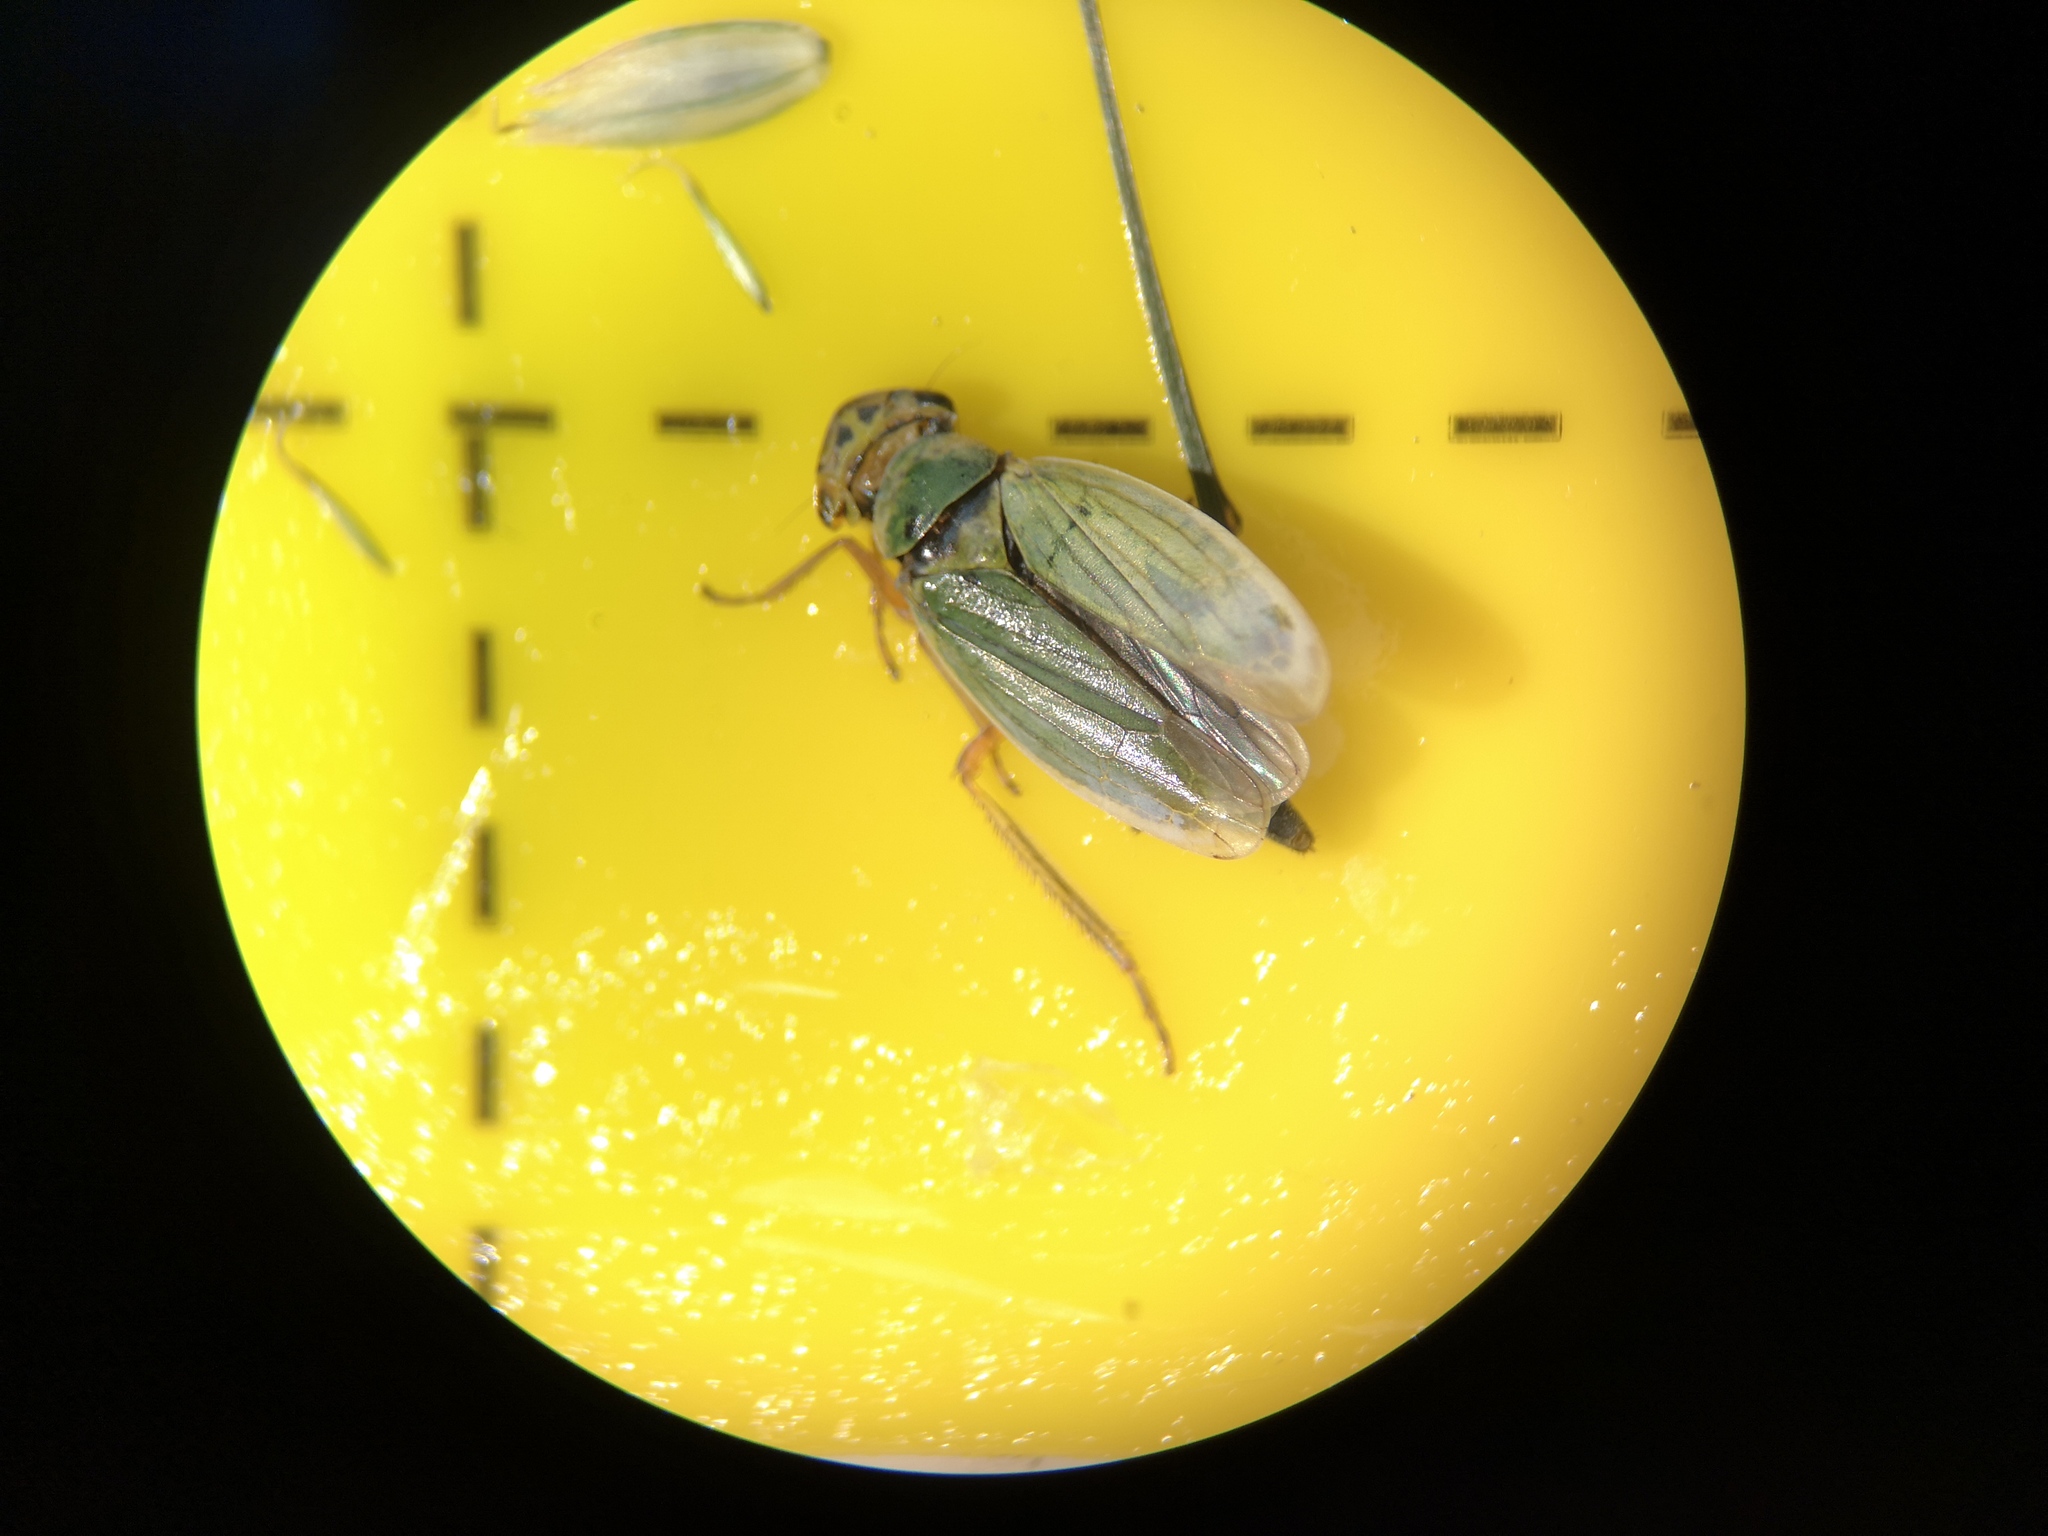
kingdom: Animalia
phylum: Arthropoda
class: Insecta
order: Hemiptera
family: Cicadellidae
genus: Cicadella
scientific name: Cicadella viridis
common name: Leafhopper
